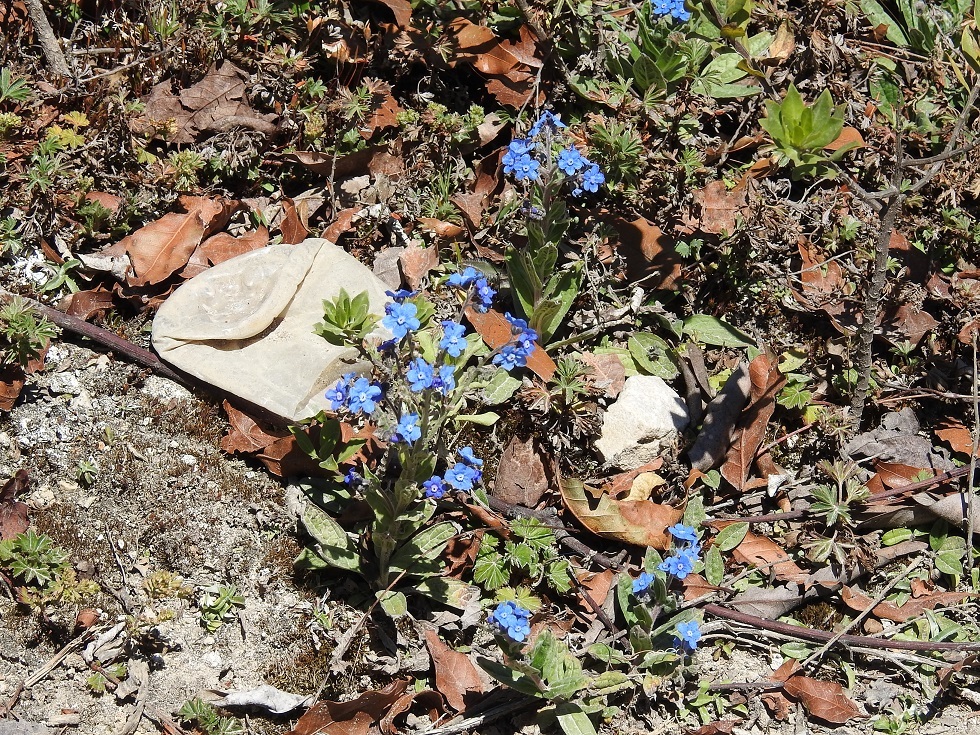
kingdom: Plantae
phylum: Tracheophyta
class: Magnoliopsida
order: Boraginales
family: Boraginaceae
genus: Cynoglossum
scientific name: Cynoglossum amabile
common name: Chinese hound's tongue
